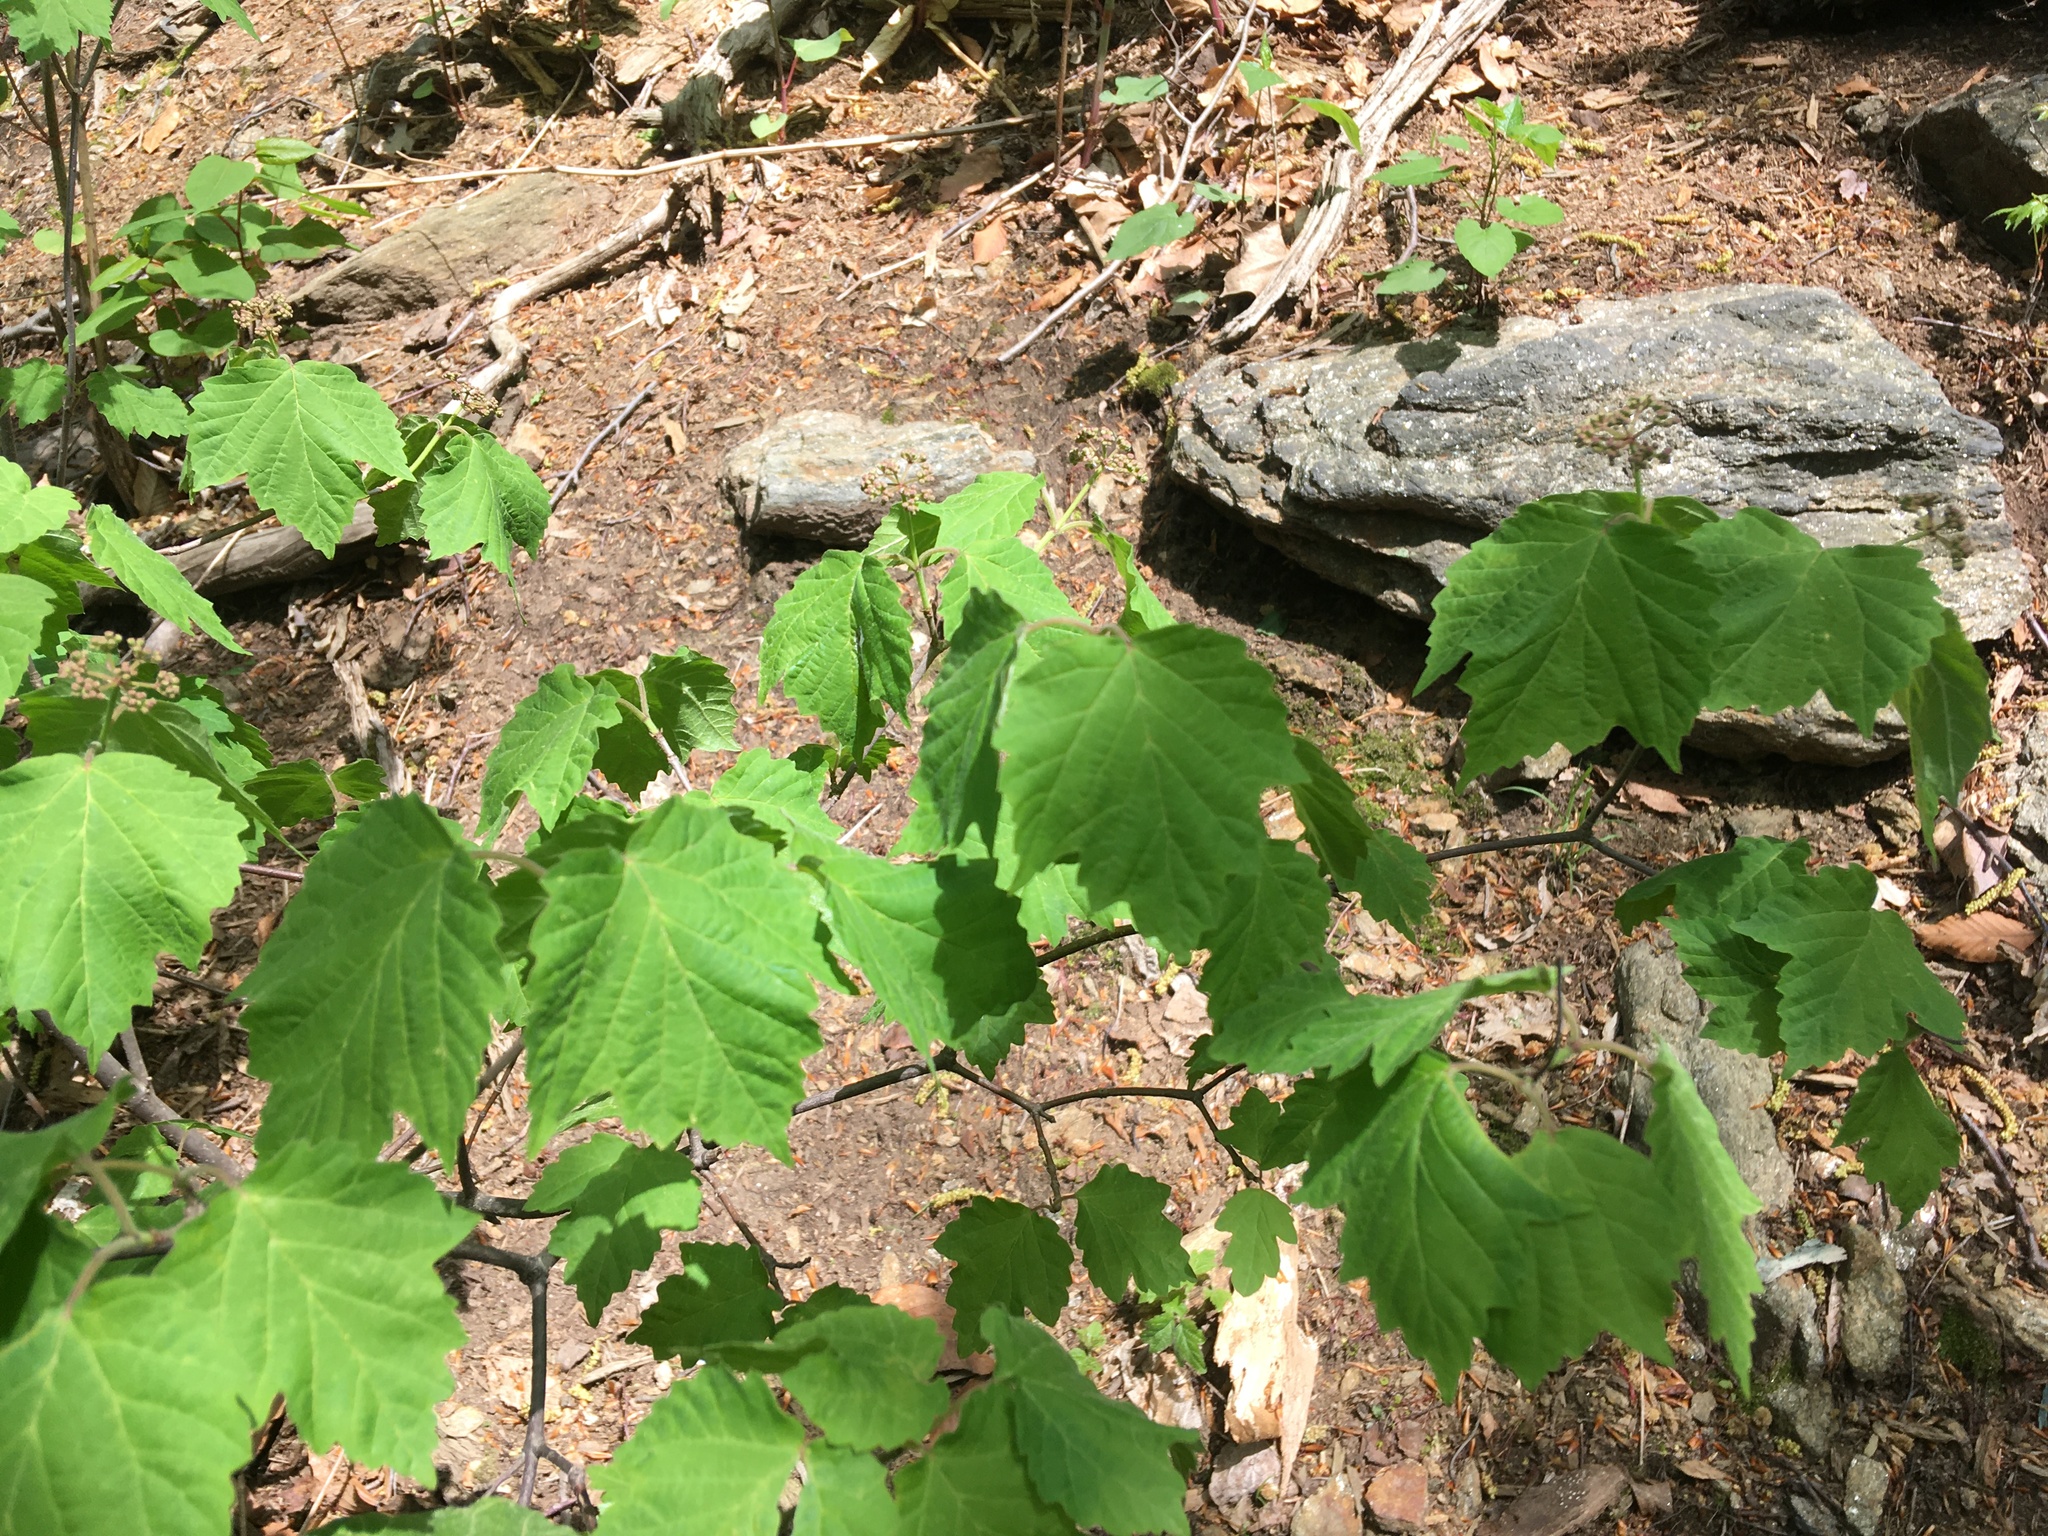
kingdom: Plantae
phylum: Tracheophyta
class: Magnoliopsida
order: Dipsacales
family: Viburnaceae
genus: Viburnum
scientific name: Viburnum acerifolium
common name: Dockmackie
